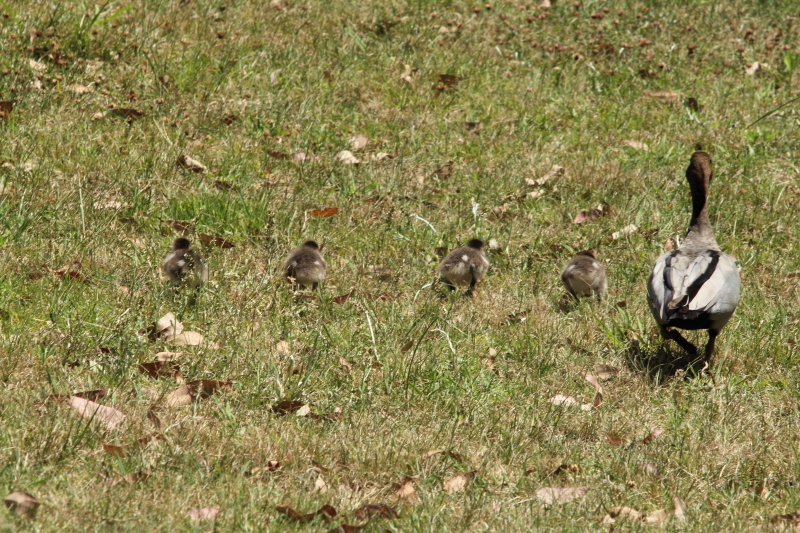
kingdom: Animalia
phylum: Chordata
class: Aves
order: Anseriformes
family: Anatidae
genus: Chenonetta
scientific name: Chenonetta jubata
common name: Maned duck
